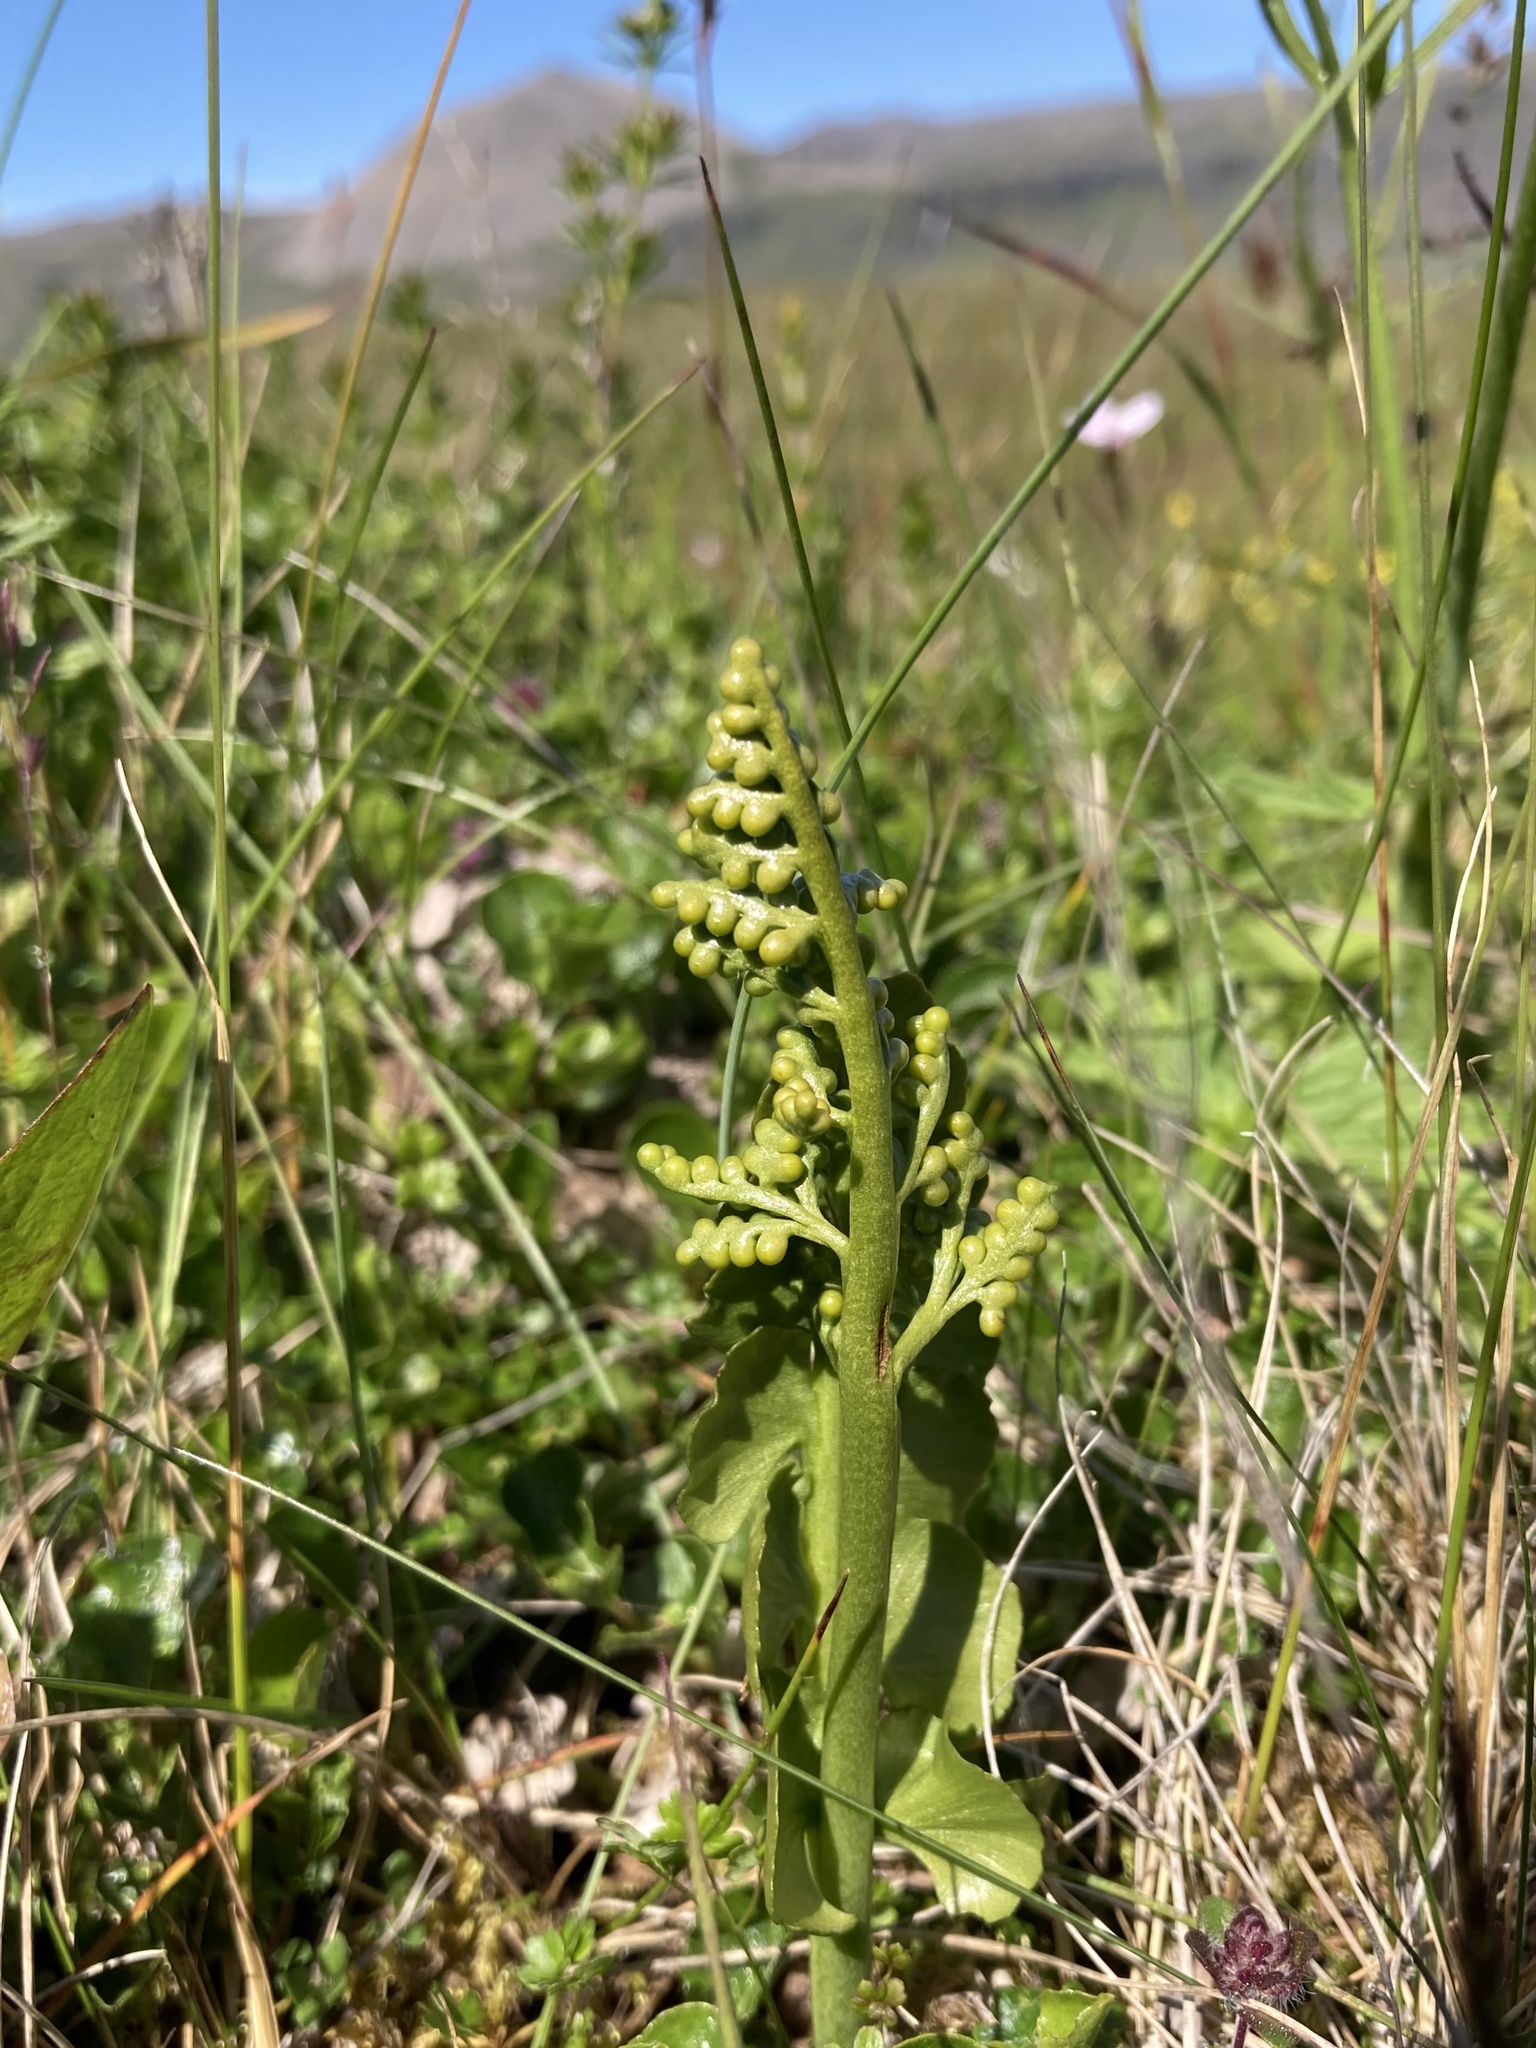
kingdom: Plantae
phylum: Tracheophyta
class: Polypodiopsida
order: Ophioglossales
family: Ophioglossaceae
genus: Botrychium
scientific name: Botrychium lunaria
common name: Moonwort
